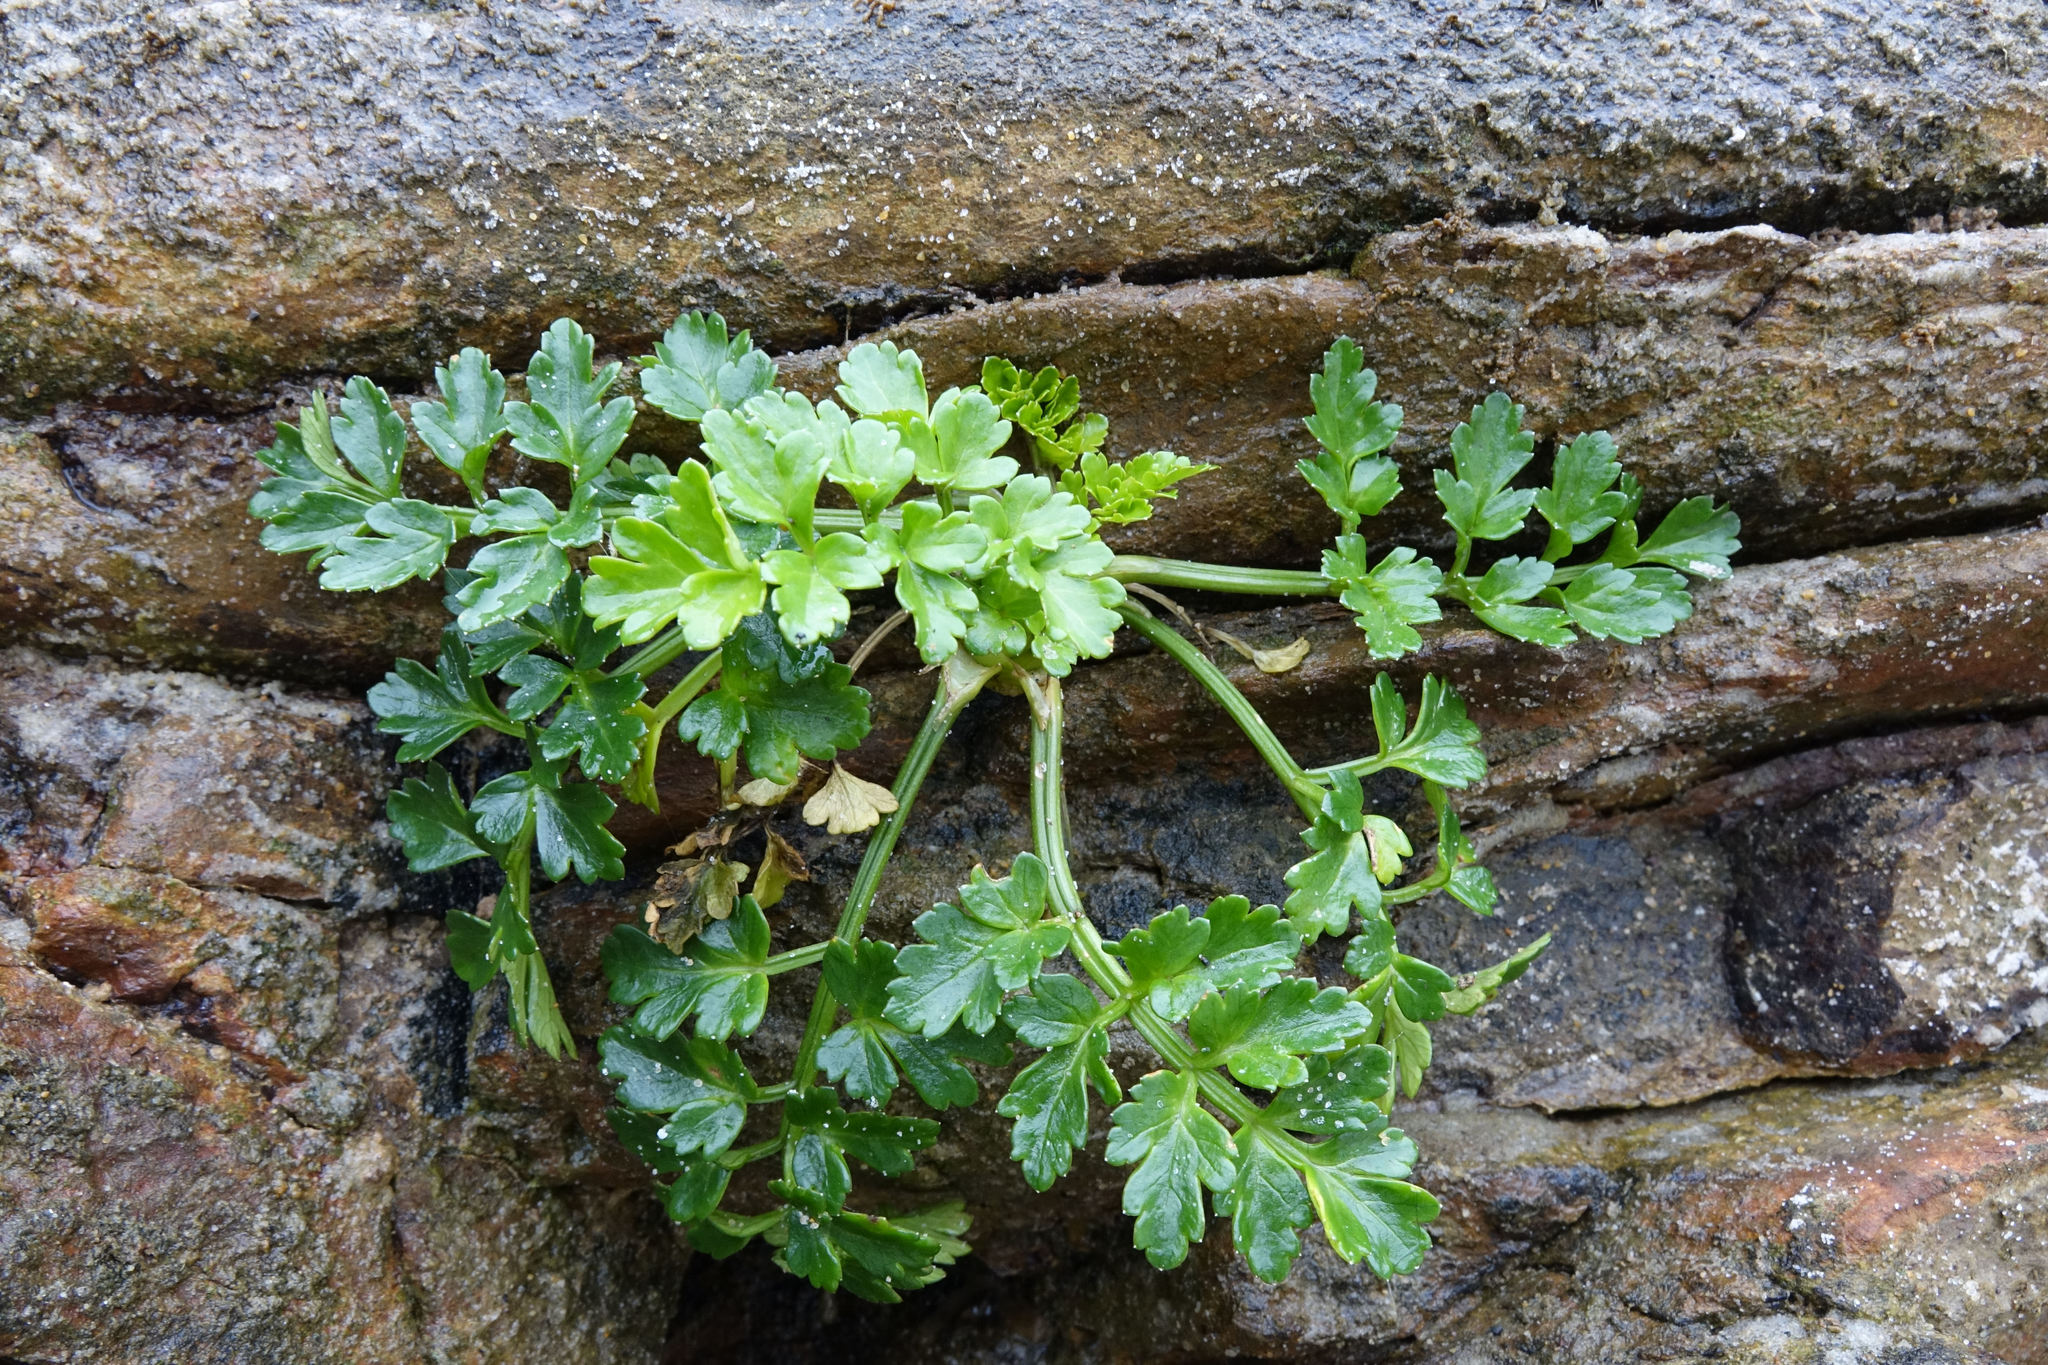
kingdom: Plantae
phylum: Tracheophyta
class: Magnoliopsida
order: Apiales
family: Apiaceae
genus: Apium
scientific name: Apium prostratum
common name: Prostrate marshwort
